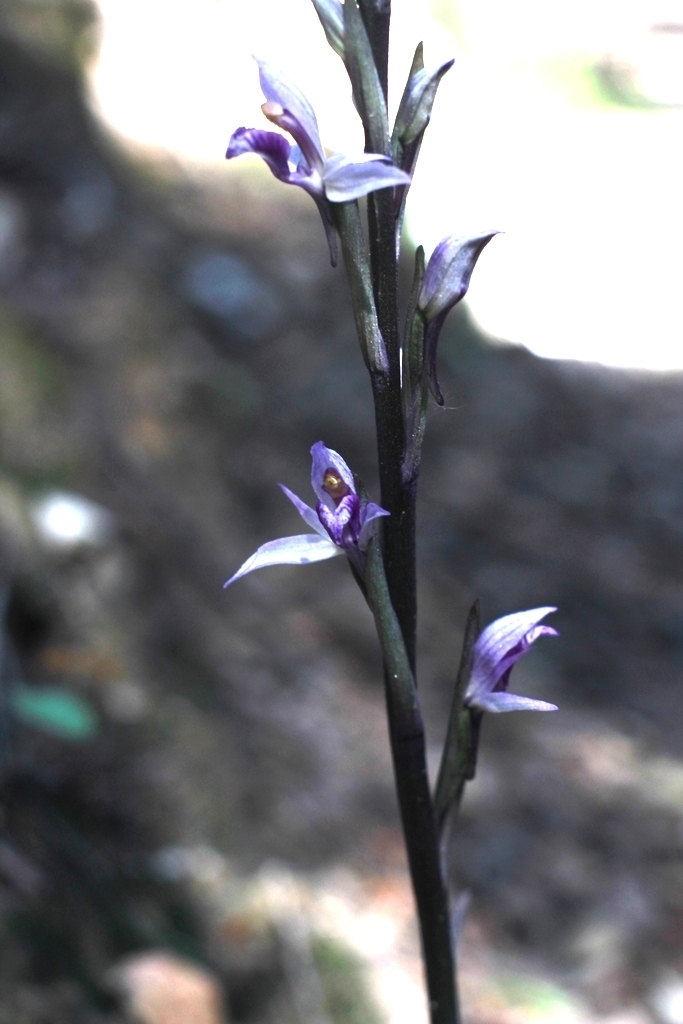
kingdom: Plantae
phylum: Tracheophyta
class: Liliopsida
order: Asparagales
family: Orchidaceae
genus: Limodorum
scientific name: Limodorum abortivum
